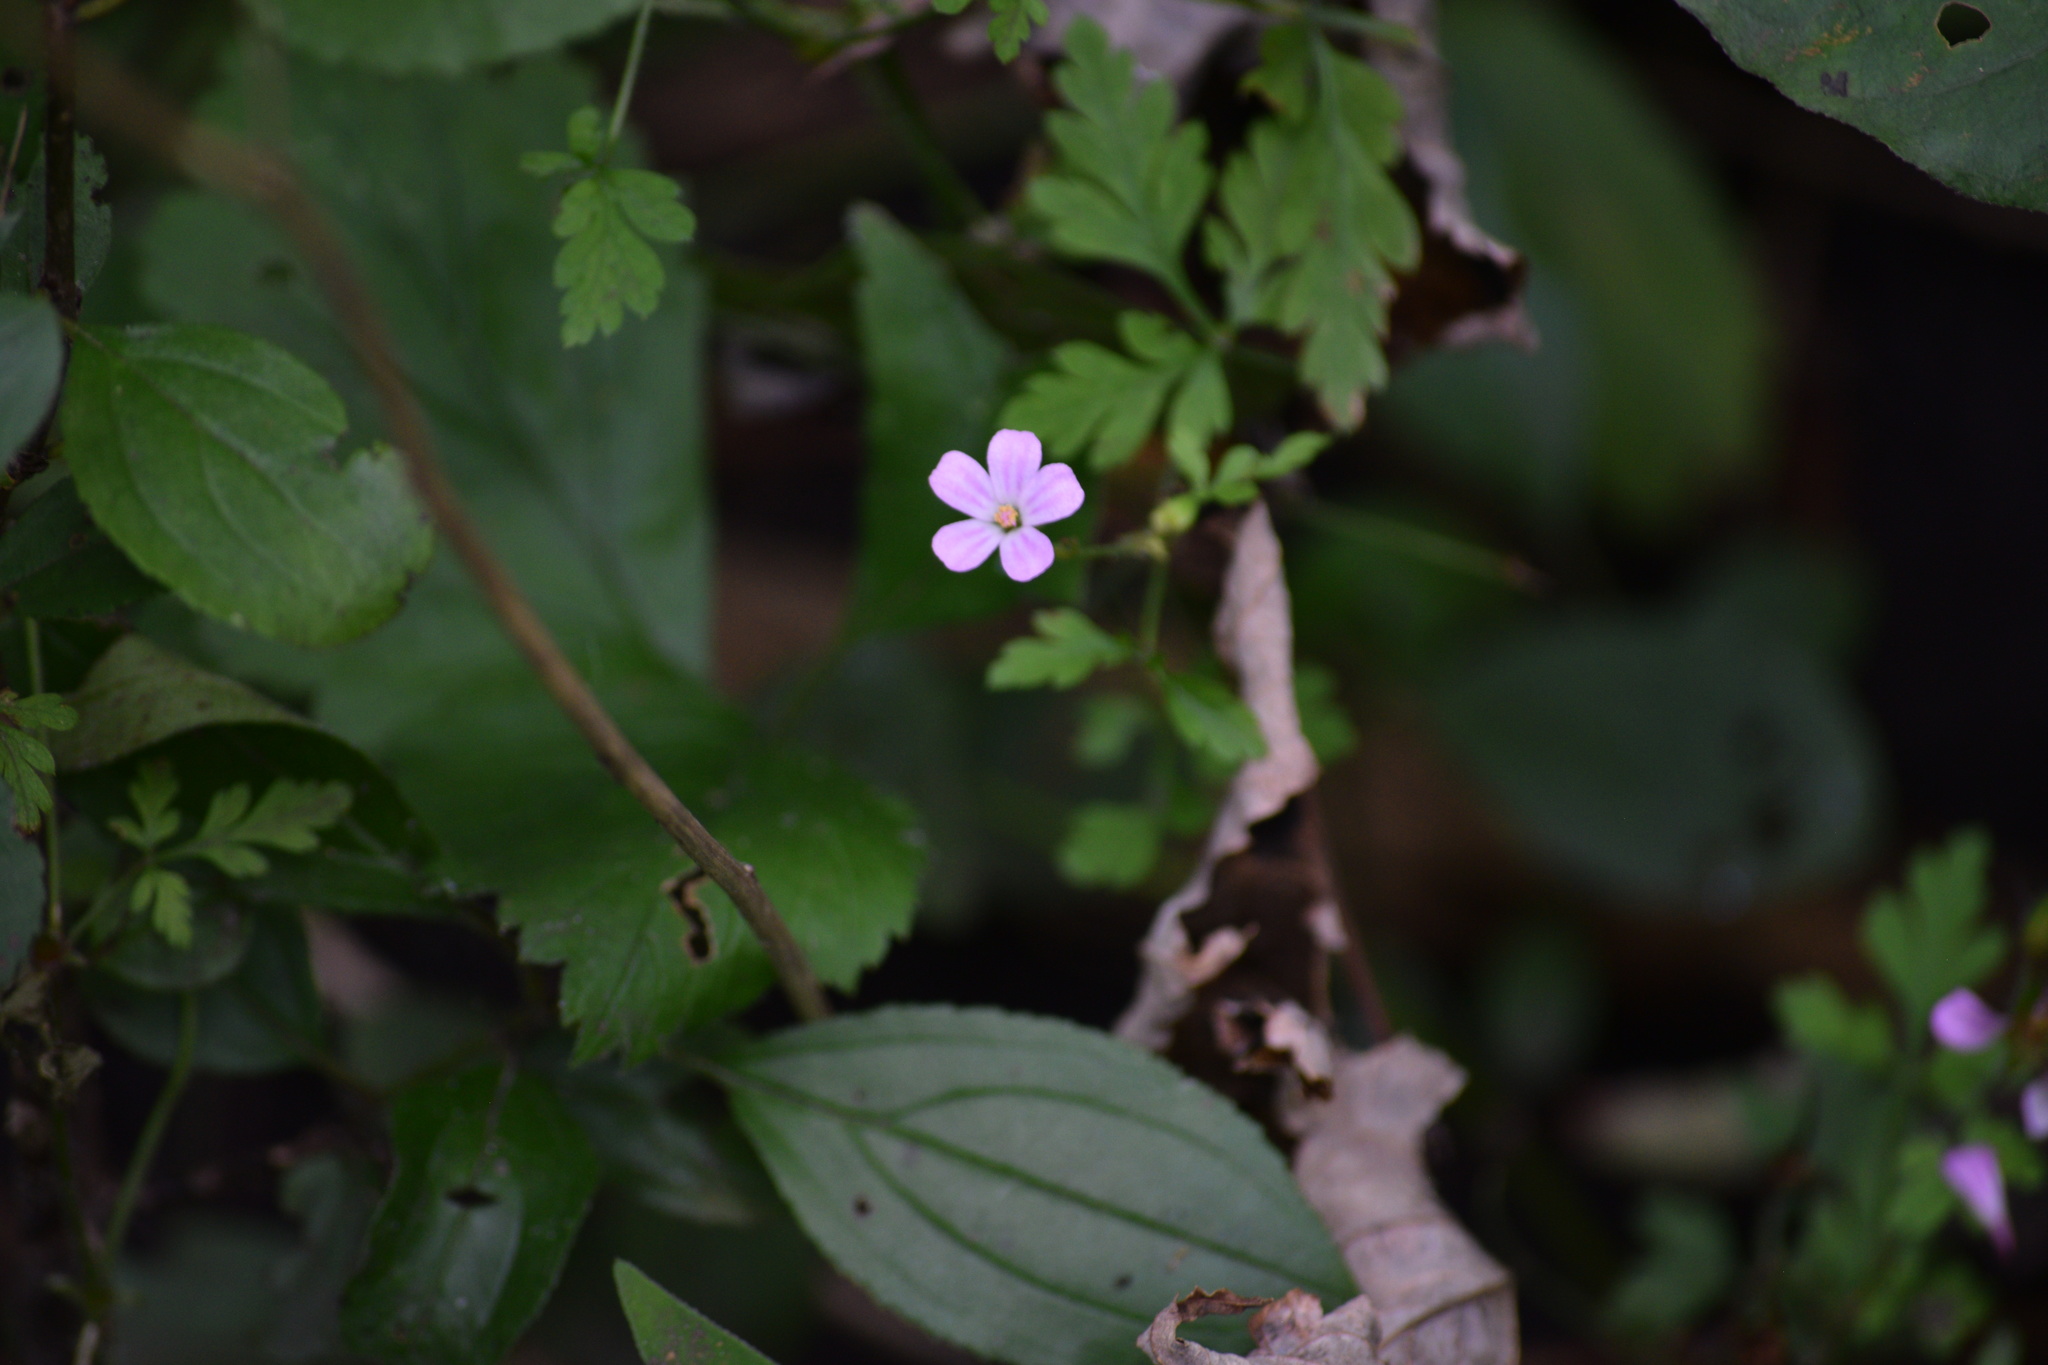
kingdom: Plantae
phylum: Tracheophyta
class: Magnoliopsida
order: Geraniales
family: Geraniaceae
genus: Geranium
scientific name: Geranium robertianum
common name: Herb-robert
